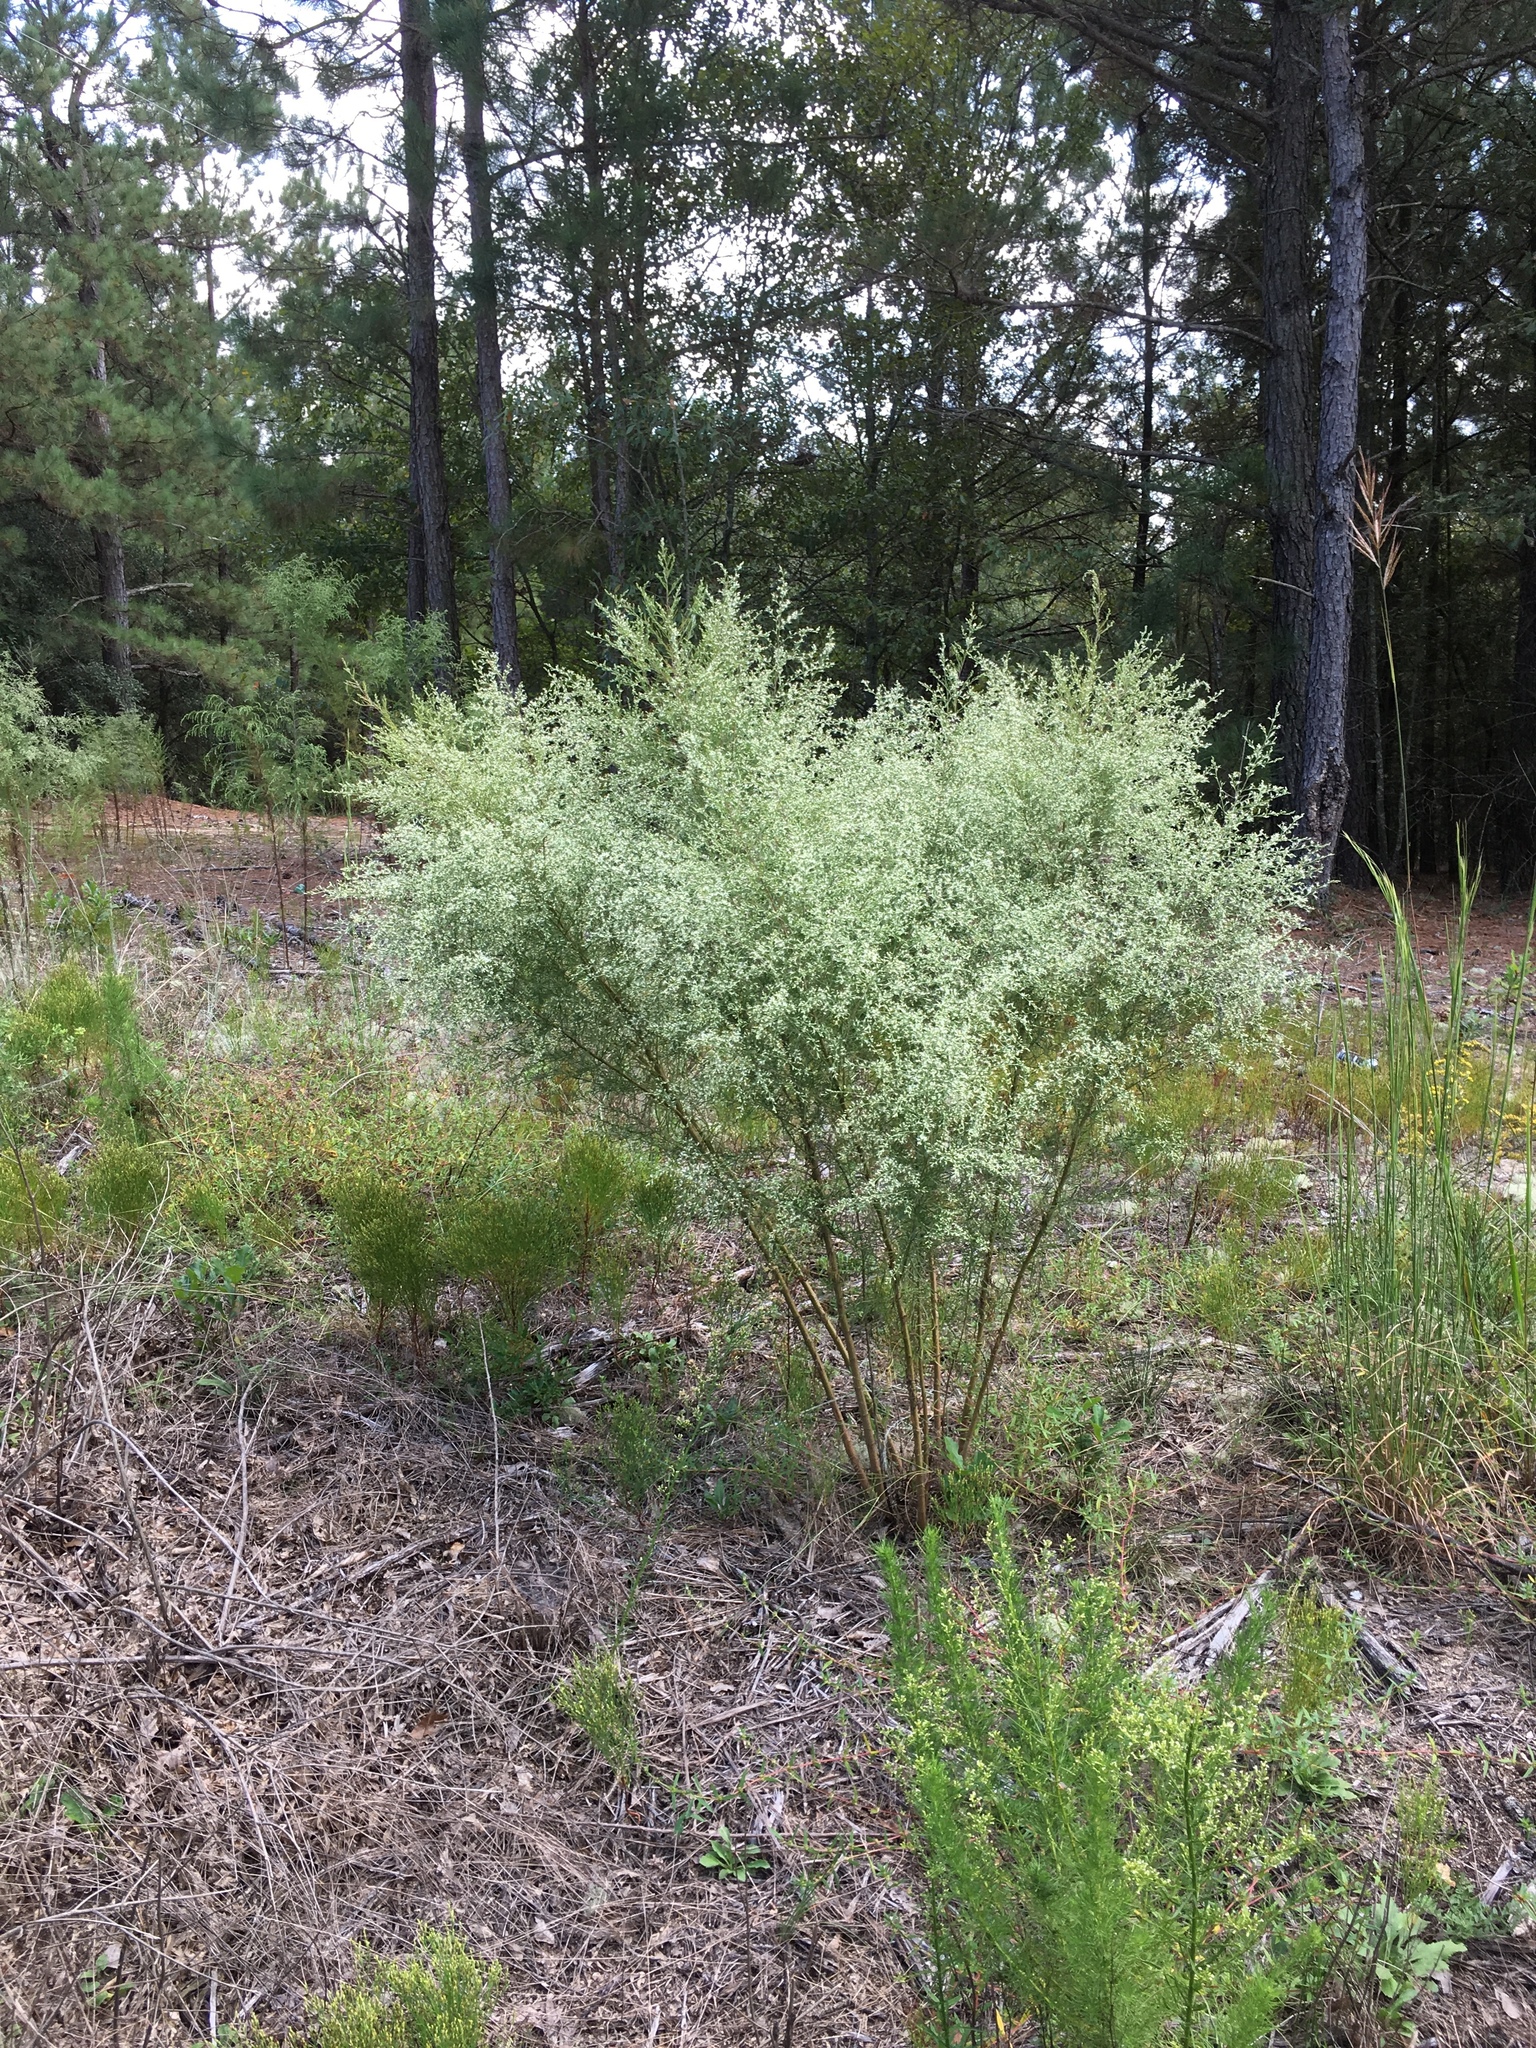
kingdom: Plantae
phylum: Tracheophyta
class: Magnoliopsida
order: Asterales
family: Asteraceae
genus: Eupatorium
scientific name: Eupatorium capillifolium
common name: Dog-fennel
